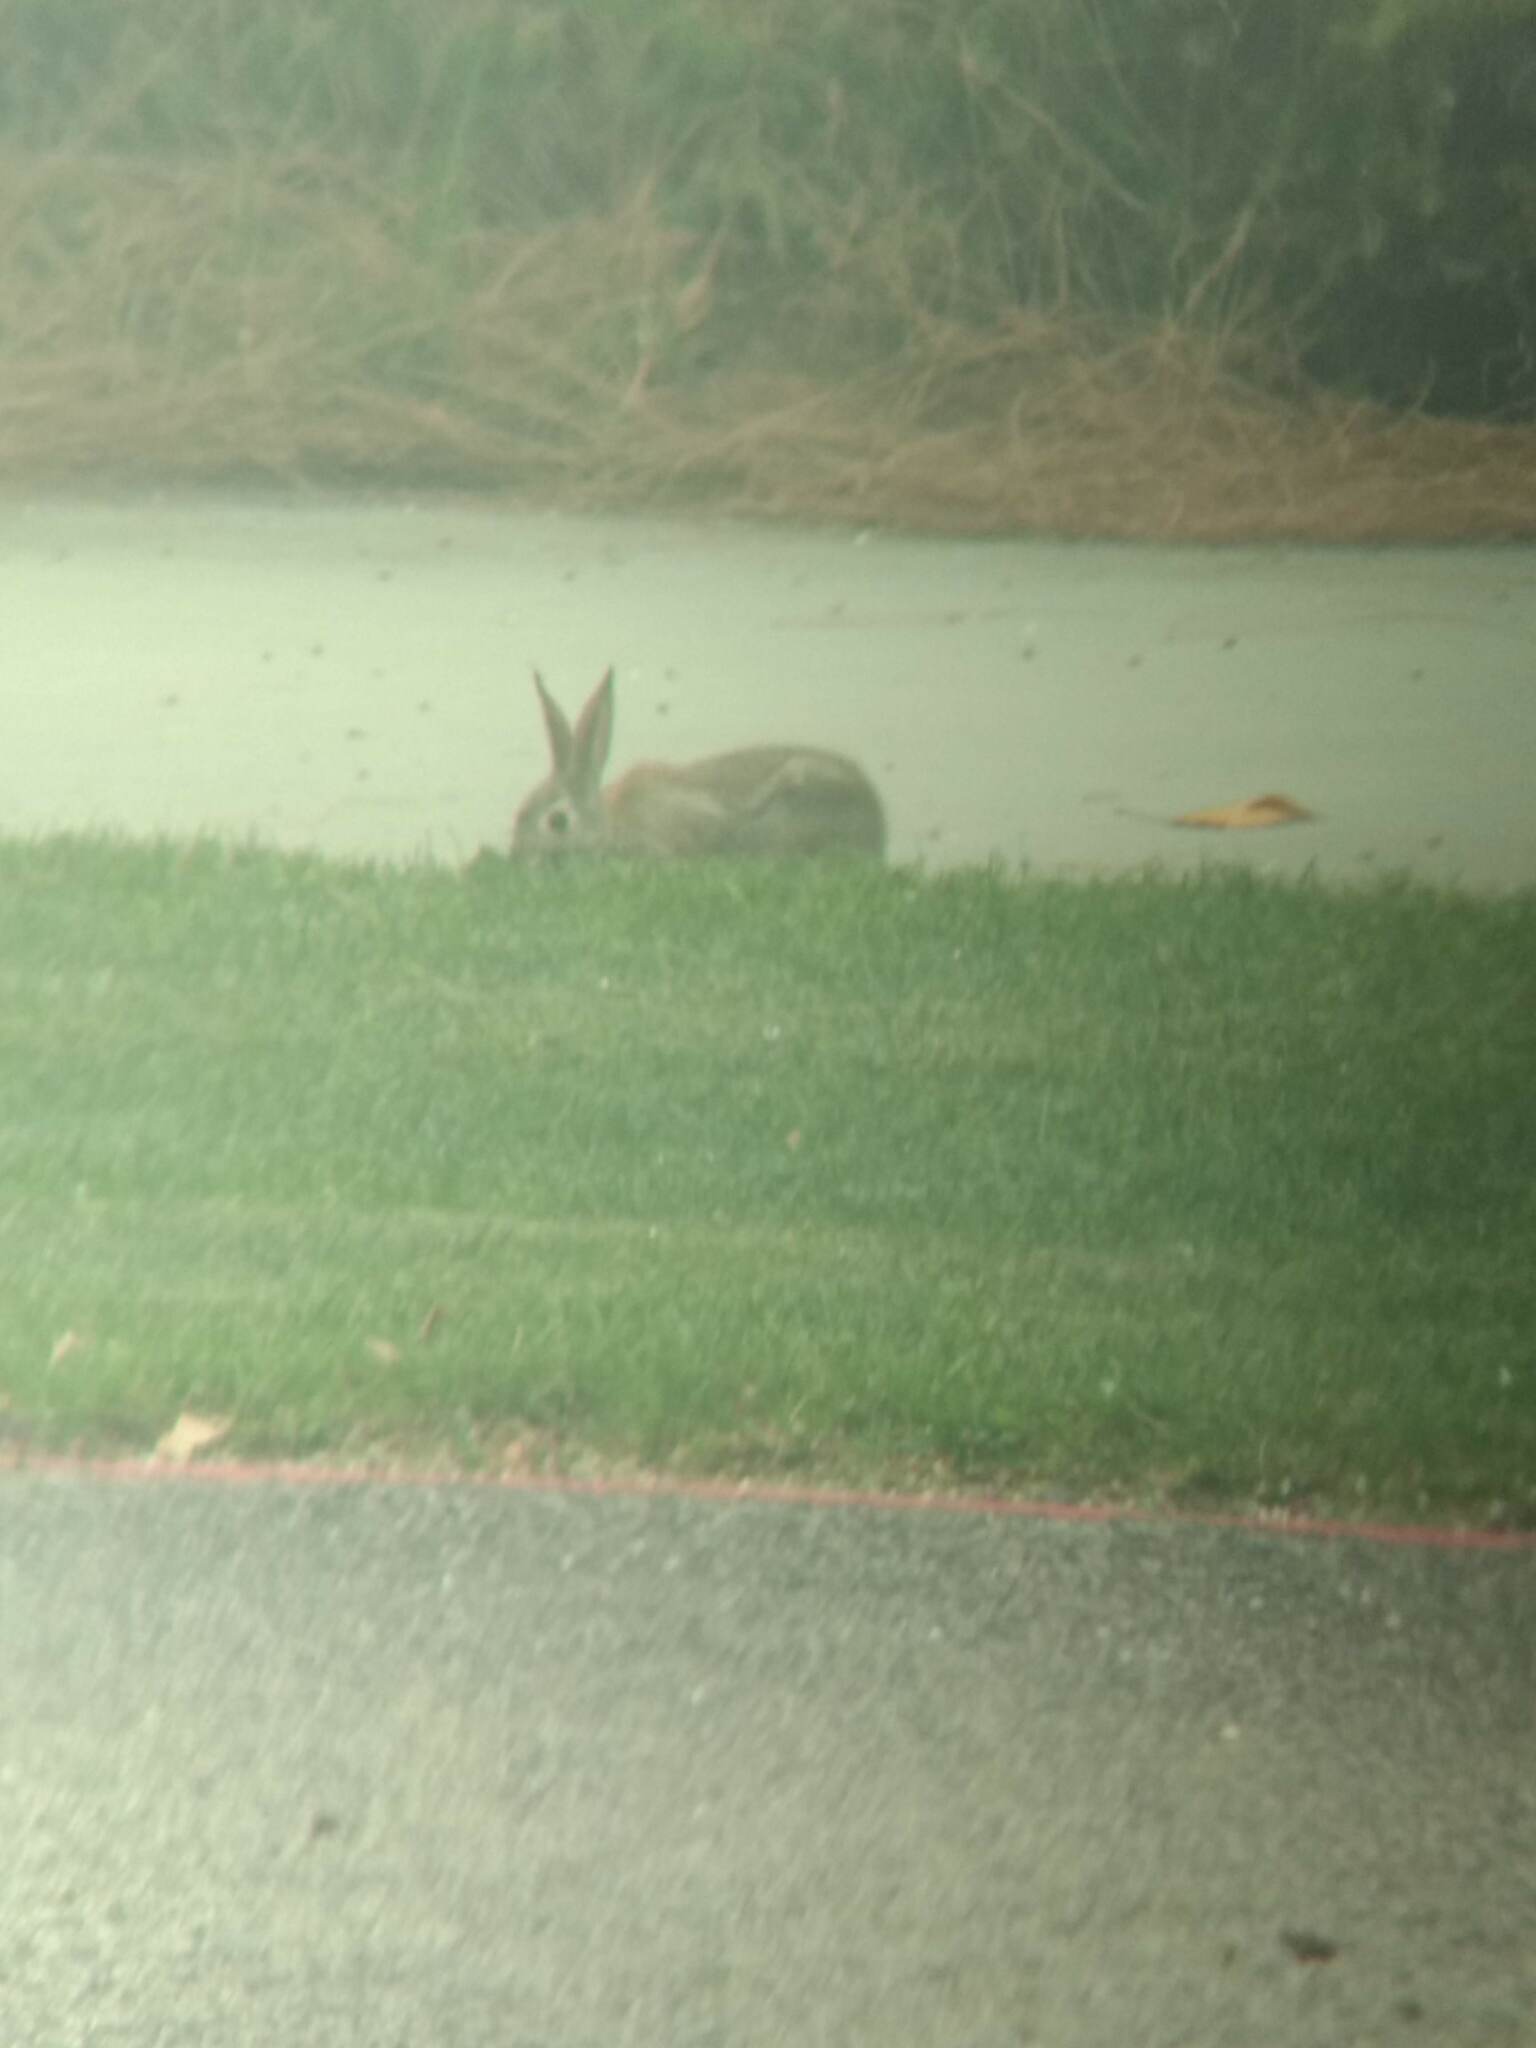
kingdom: Animalia
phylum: Chordata
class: Mammalia
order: Lagomorpha
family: Leporidae
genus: Sylvilagus
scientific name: Sylvilagus audubonii
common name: Desert cottontail
